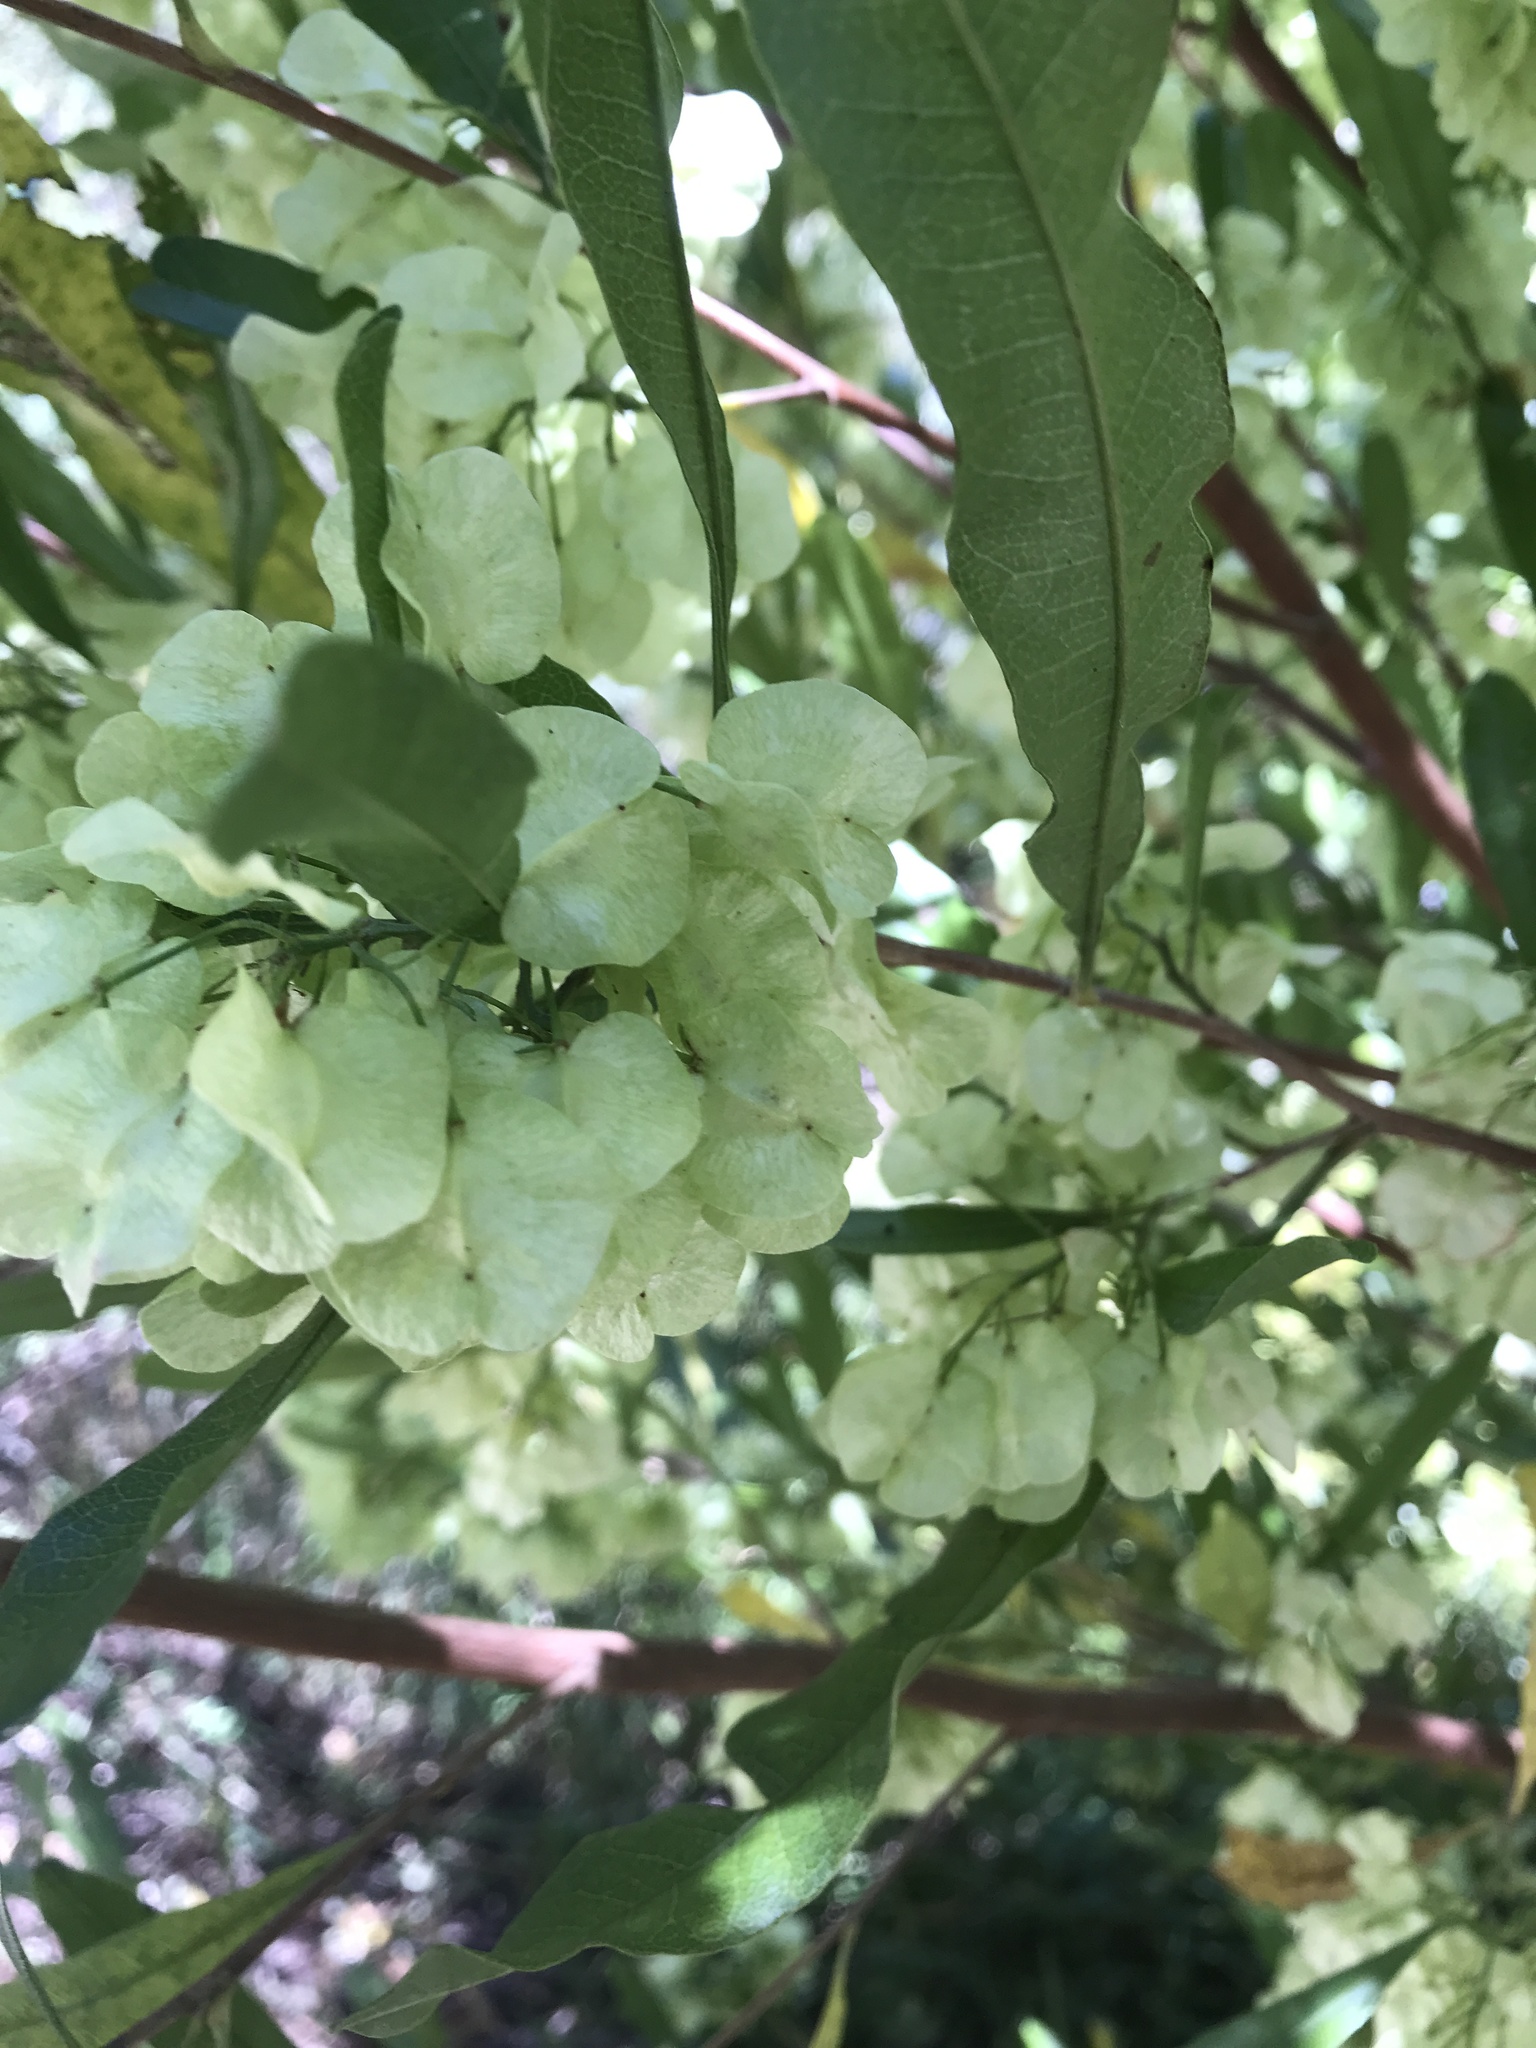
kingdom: Plantae
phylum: Tracheophyta
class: Magnoliopsida
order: Sapindales
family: Sapindaceae
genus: Dodonaea
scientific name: Dodonaea viscosa
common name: Hopbush
